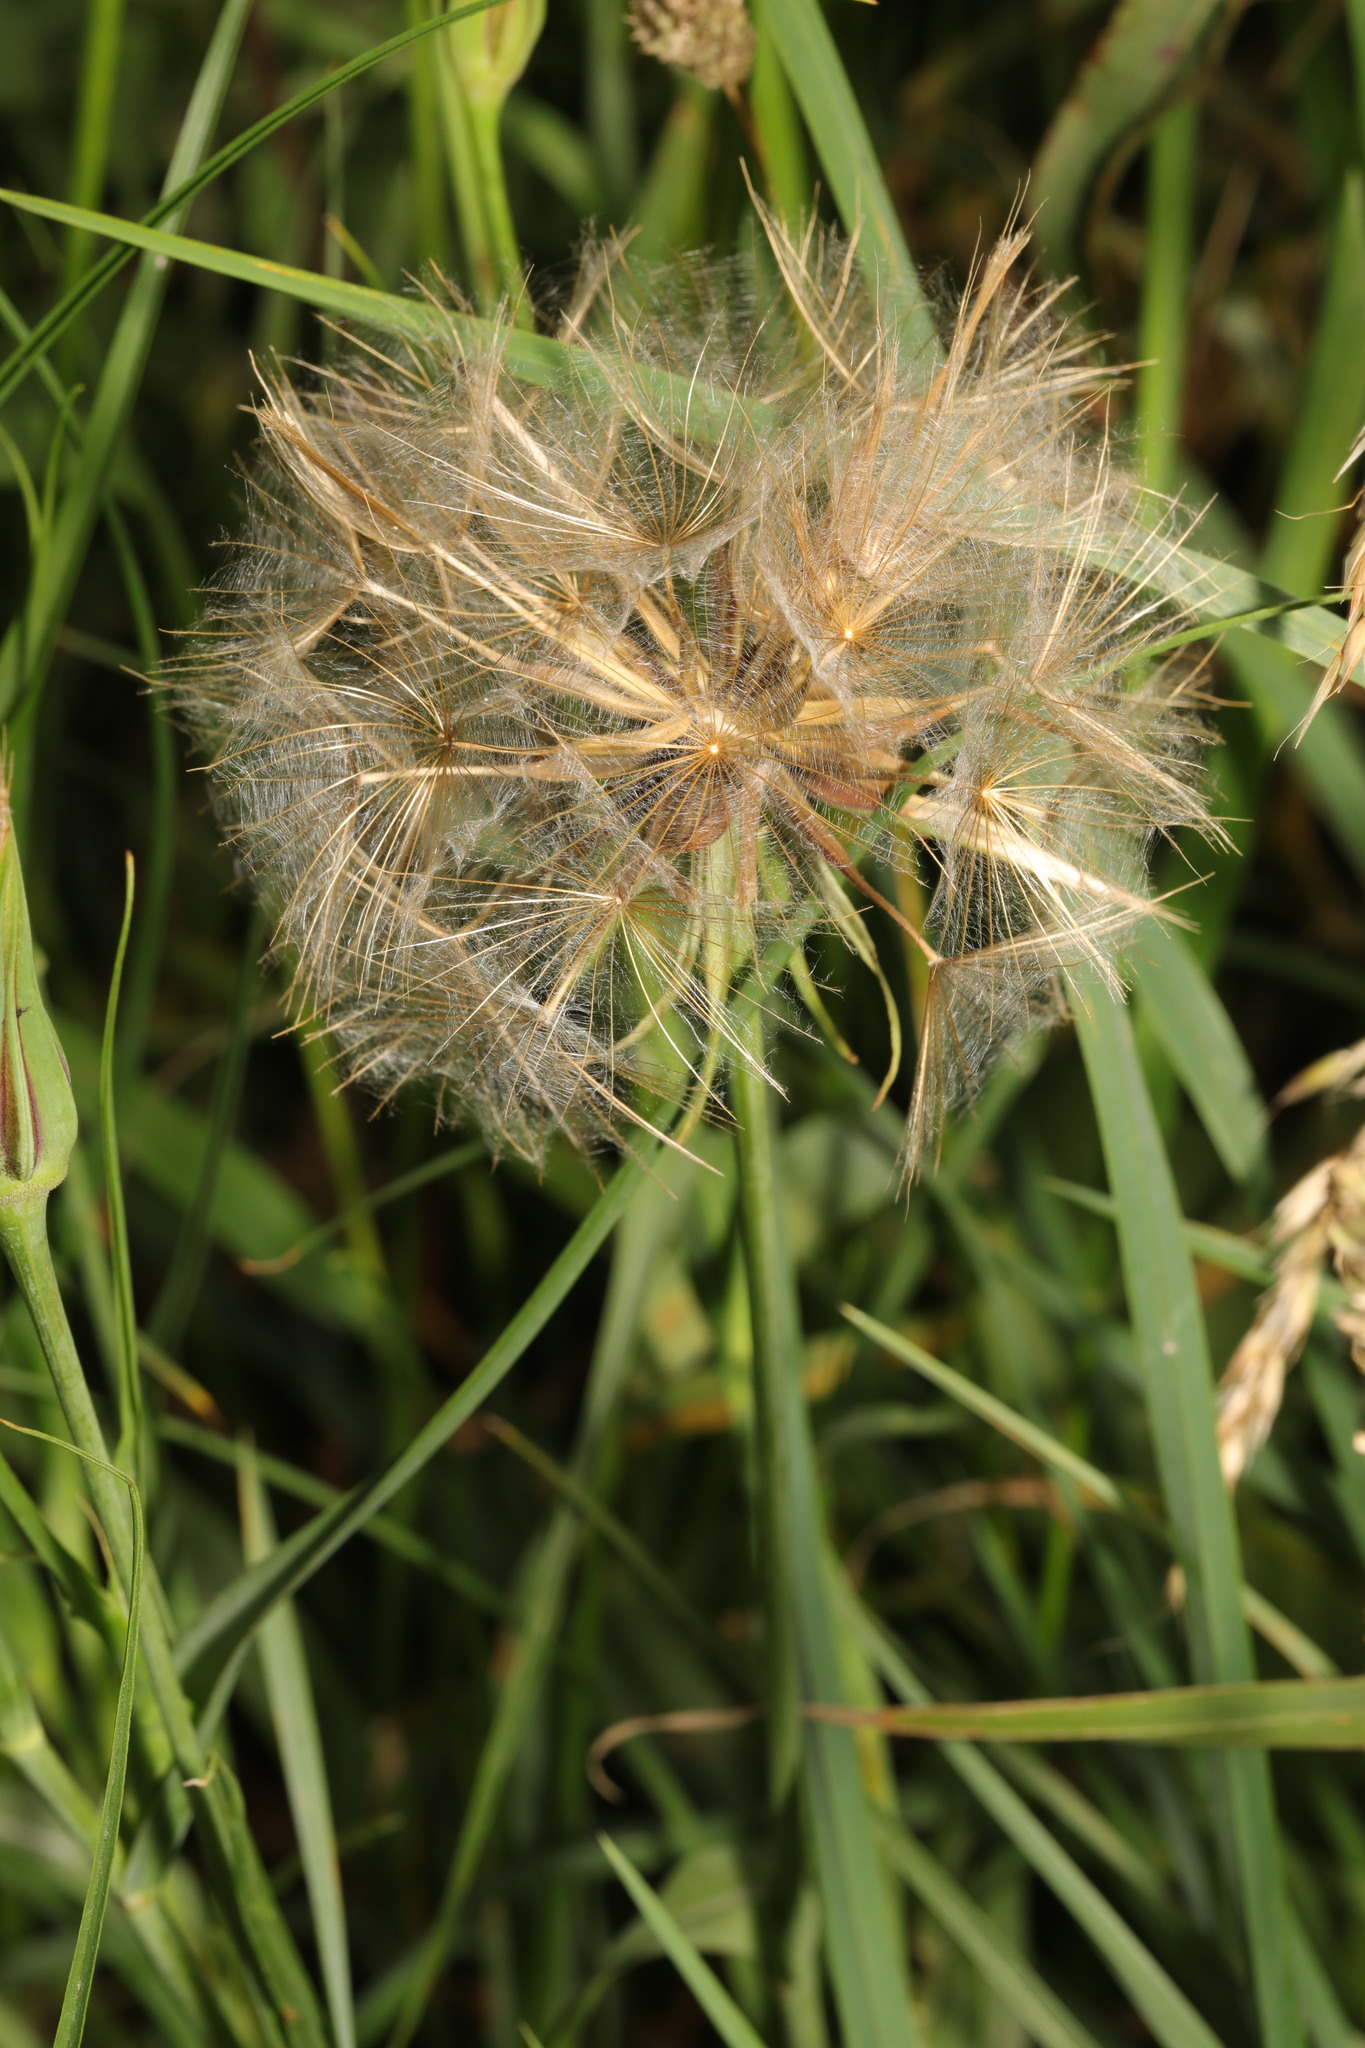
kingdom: Plantae
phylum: Tracheophyta
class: Magnoliopsida
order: Asterales
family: Asteraceae
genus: Tragopogon
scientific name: Tragopogon pratensis
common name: Goat's-beard
